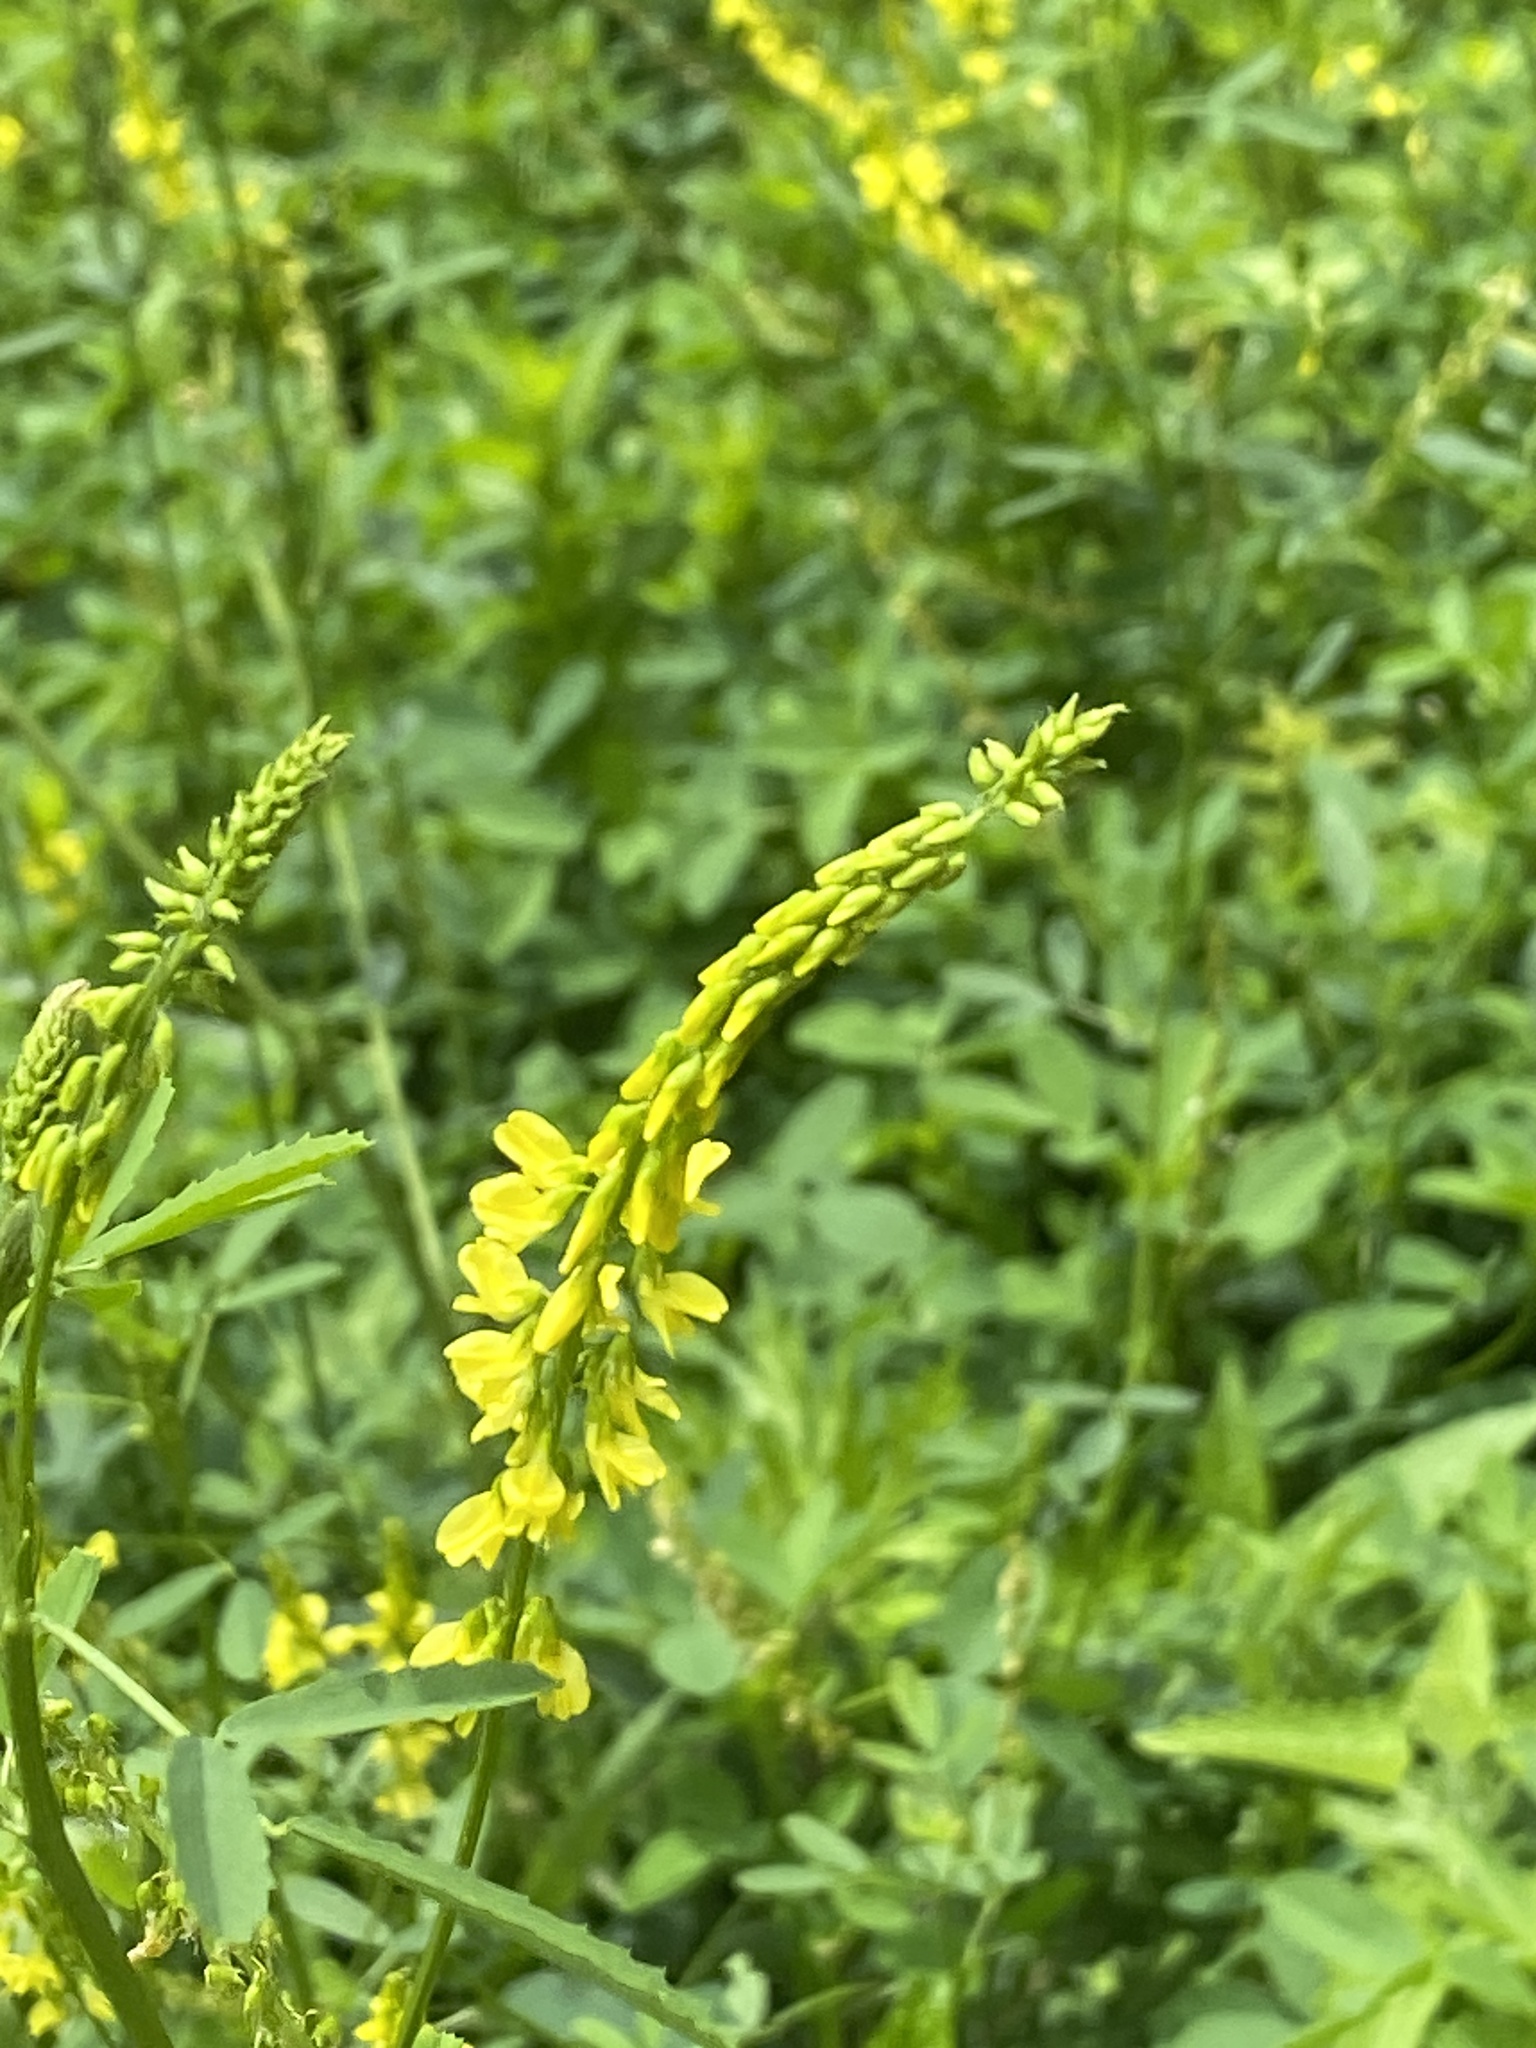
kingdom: Plantae
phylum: Tracheophyta
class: Magnoliopsida
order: Fabales
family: Fabaceae
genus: Melilotus
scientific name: Melilotus officinalis
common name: Sweetclover
